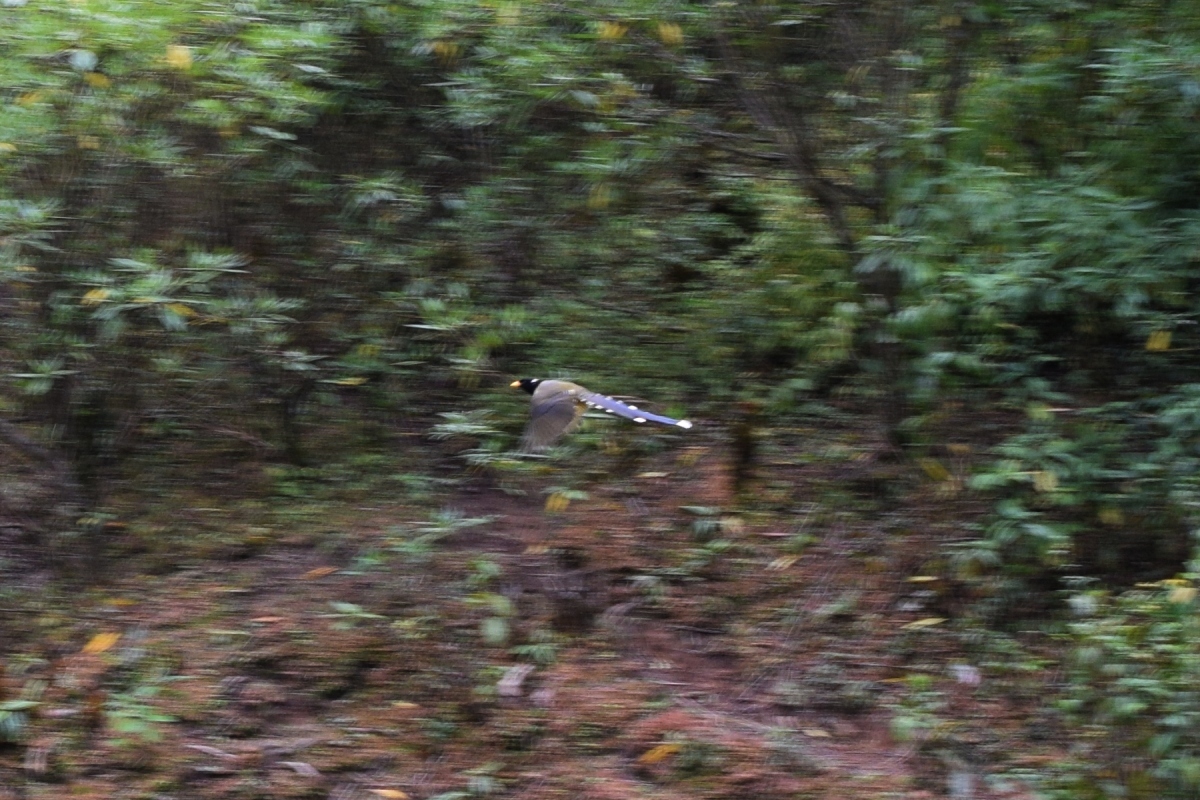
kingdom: Animalia
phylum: Chordata
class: Aves
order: Passeriformes
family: Corvidae
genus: Urocissa
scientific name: Urocissa erythroryncha
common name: Red-billed blue magpie
